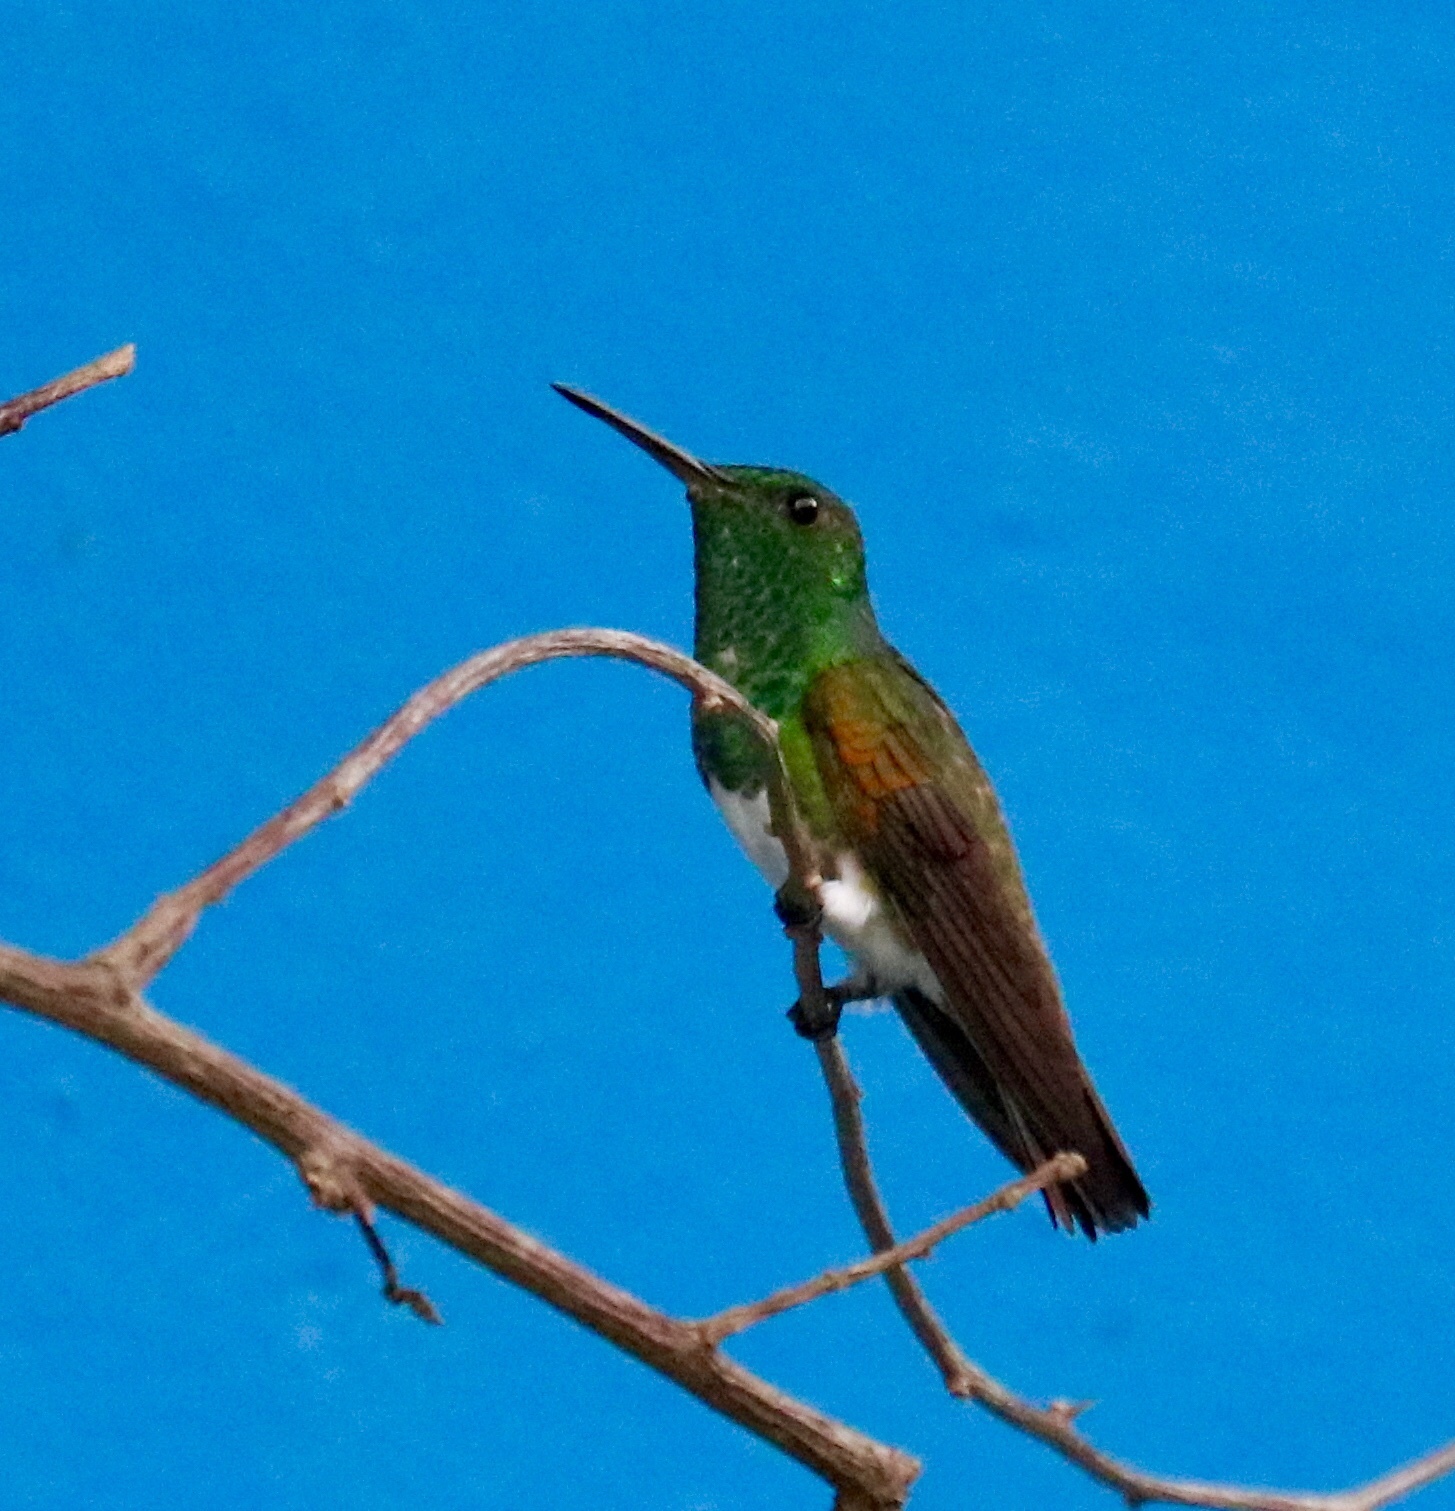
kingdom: Animalia
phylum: Chordata
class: Aves
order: Apodiformes
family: Trochilidae
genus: Saucerottia
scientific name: Saucerottia edward
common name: Snowy-bellied hummingbird
